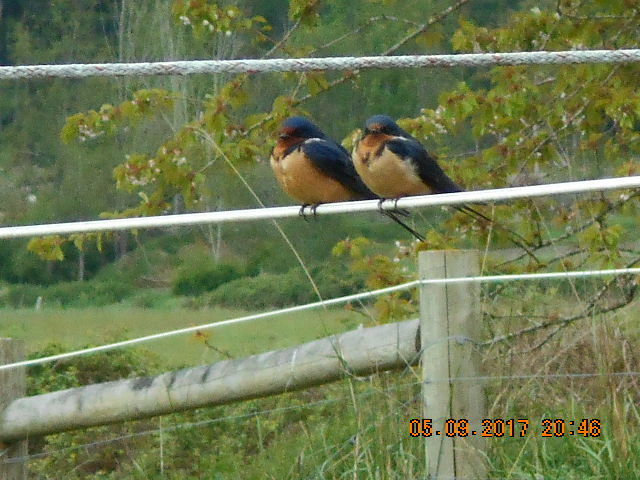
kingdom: Animalia
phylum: Chordata
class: Aves
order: Passeriformes
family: Hirundinidae
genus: Hirundo
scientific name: Hirundo rustica
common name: Barn swallow
